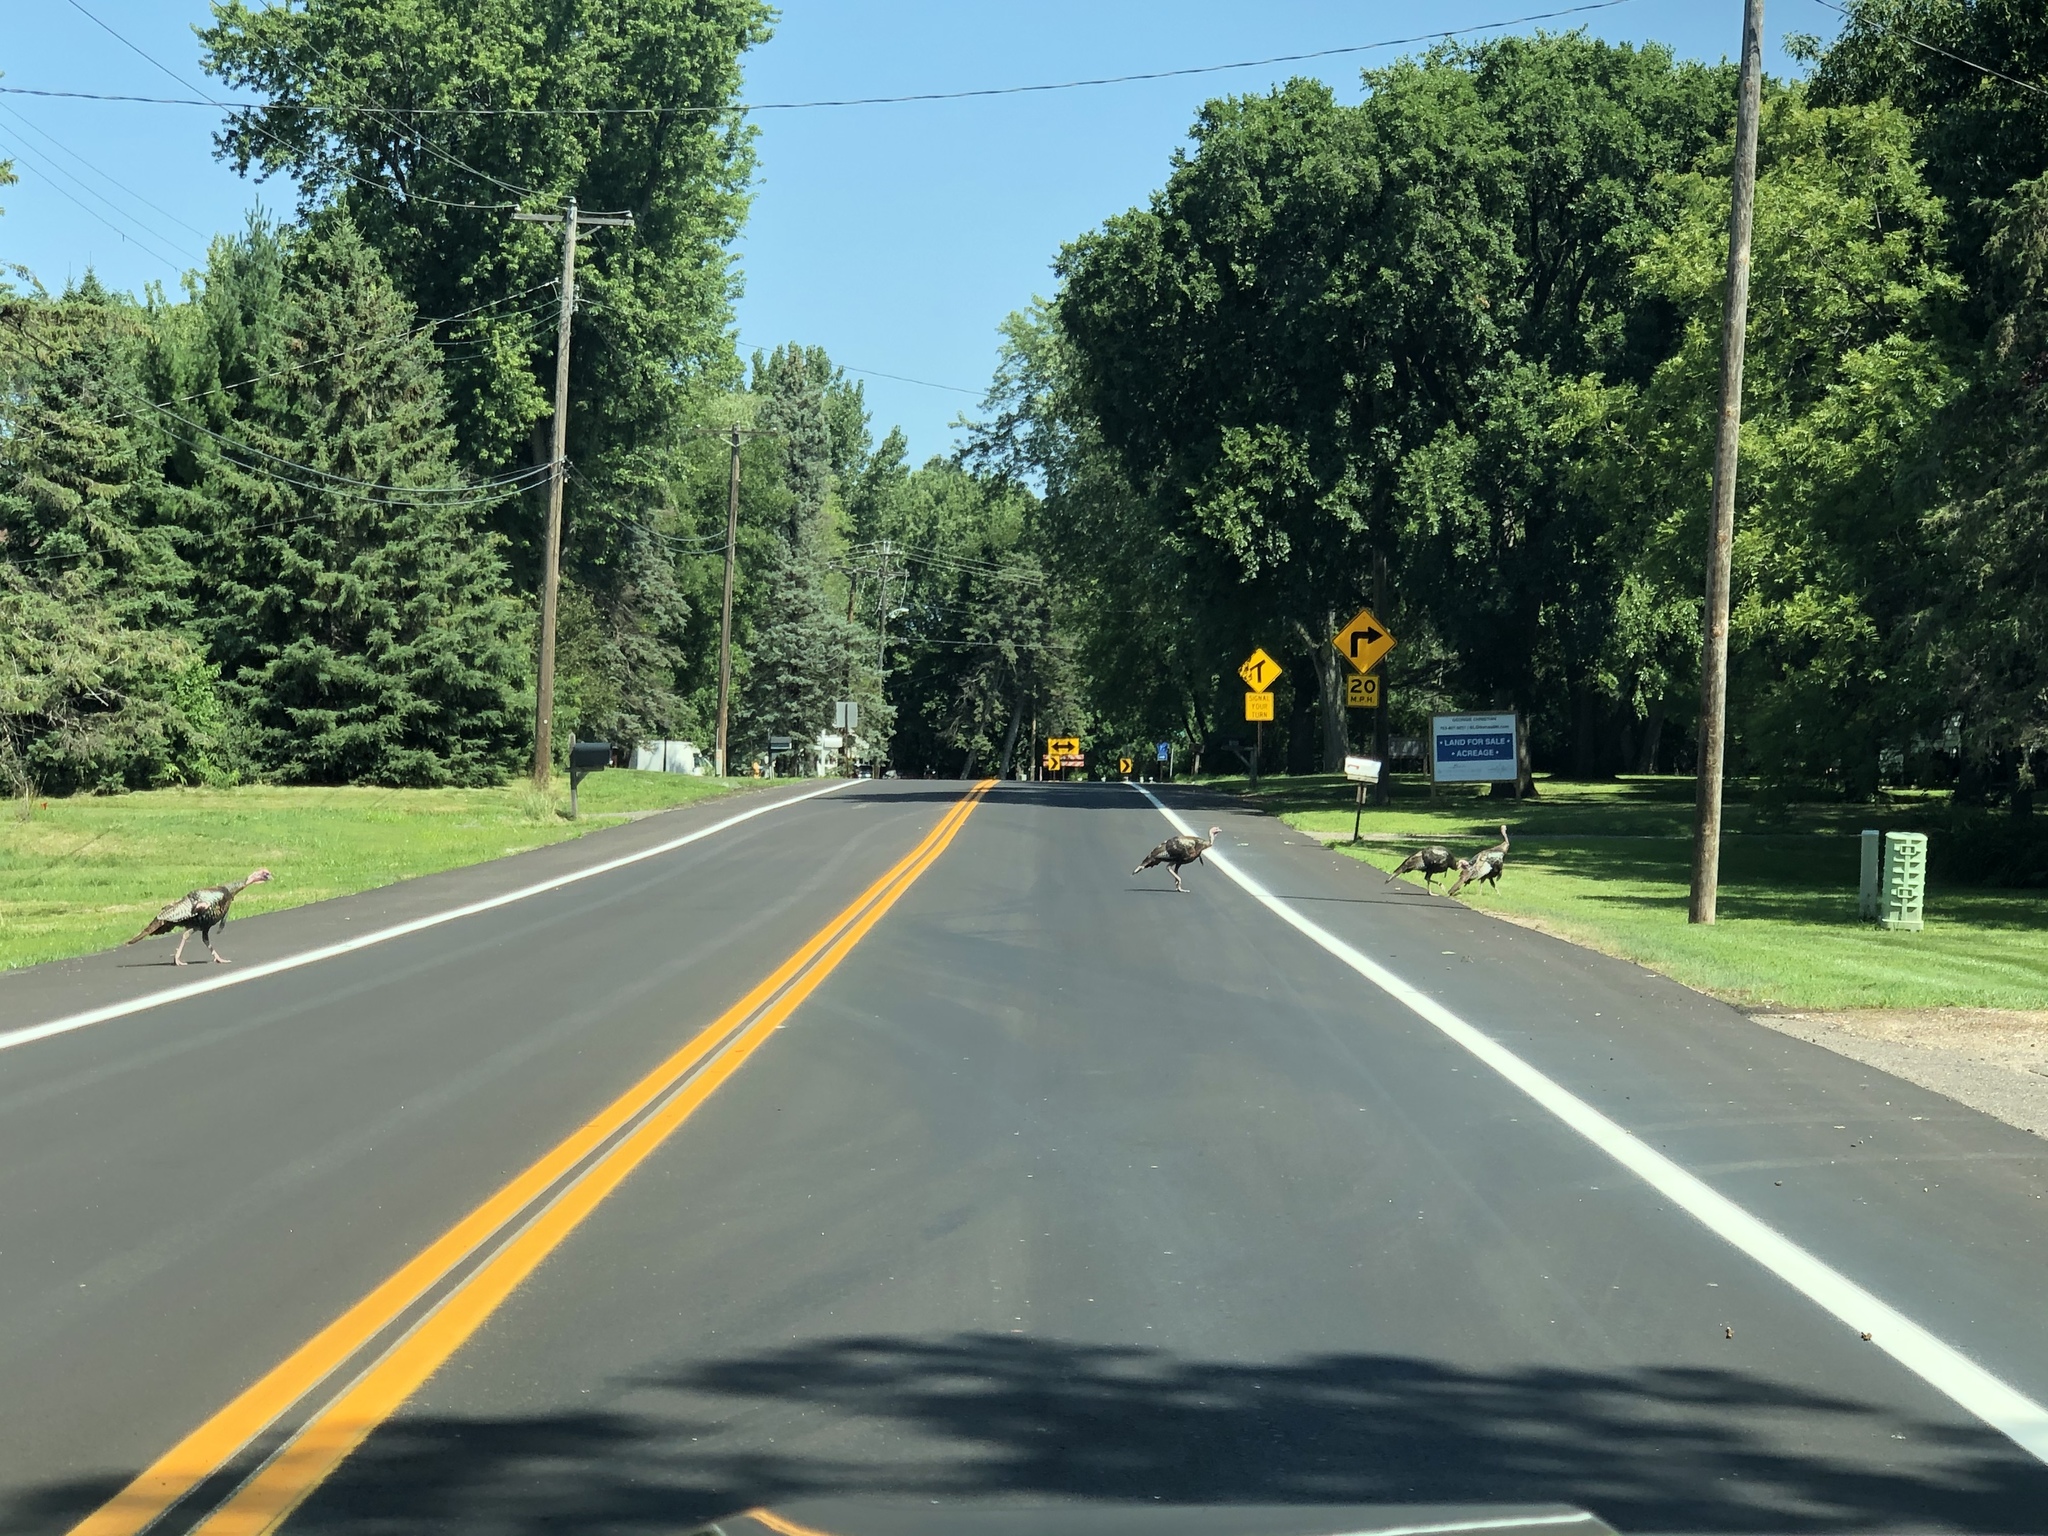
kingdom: Animalia
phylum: Chordata
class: Aves
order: Galliformes
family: Phasianidae
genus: Meleagris
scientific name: Meleagris gallopavo
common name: Wild turkey
